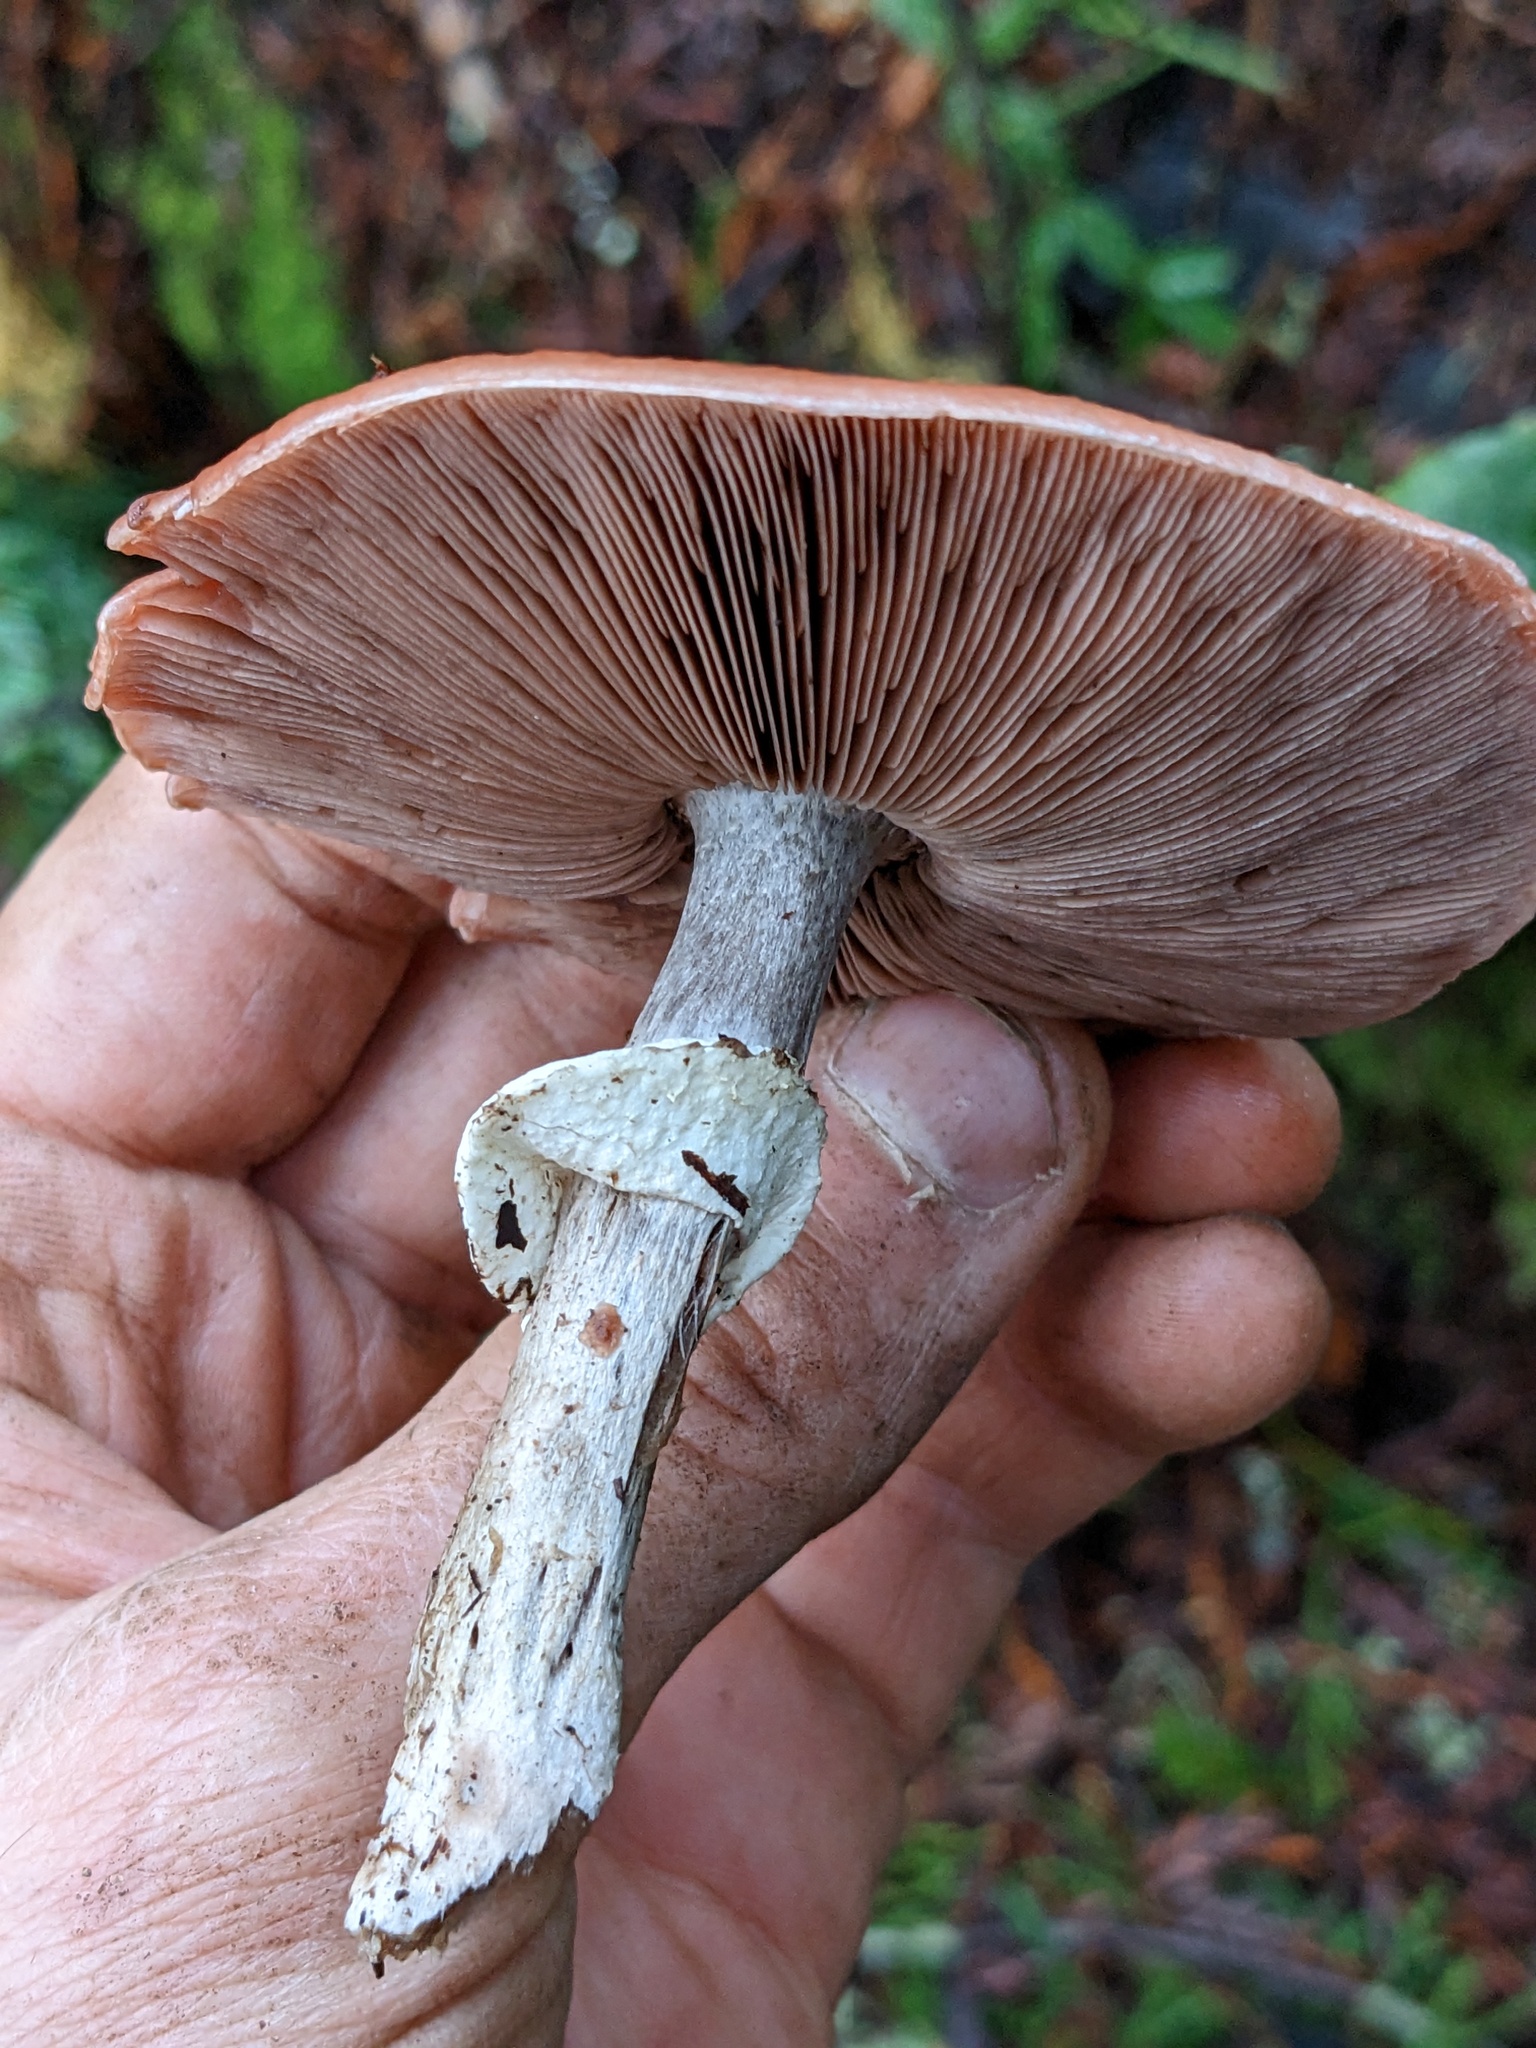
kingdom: Fungi
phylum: Basidiomycota
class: Agaricomycetes
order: Agaricales
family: Agaricaceae
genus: Agaricus
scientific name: Agaricus subrutilescens
